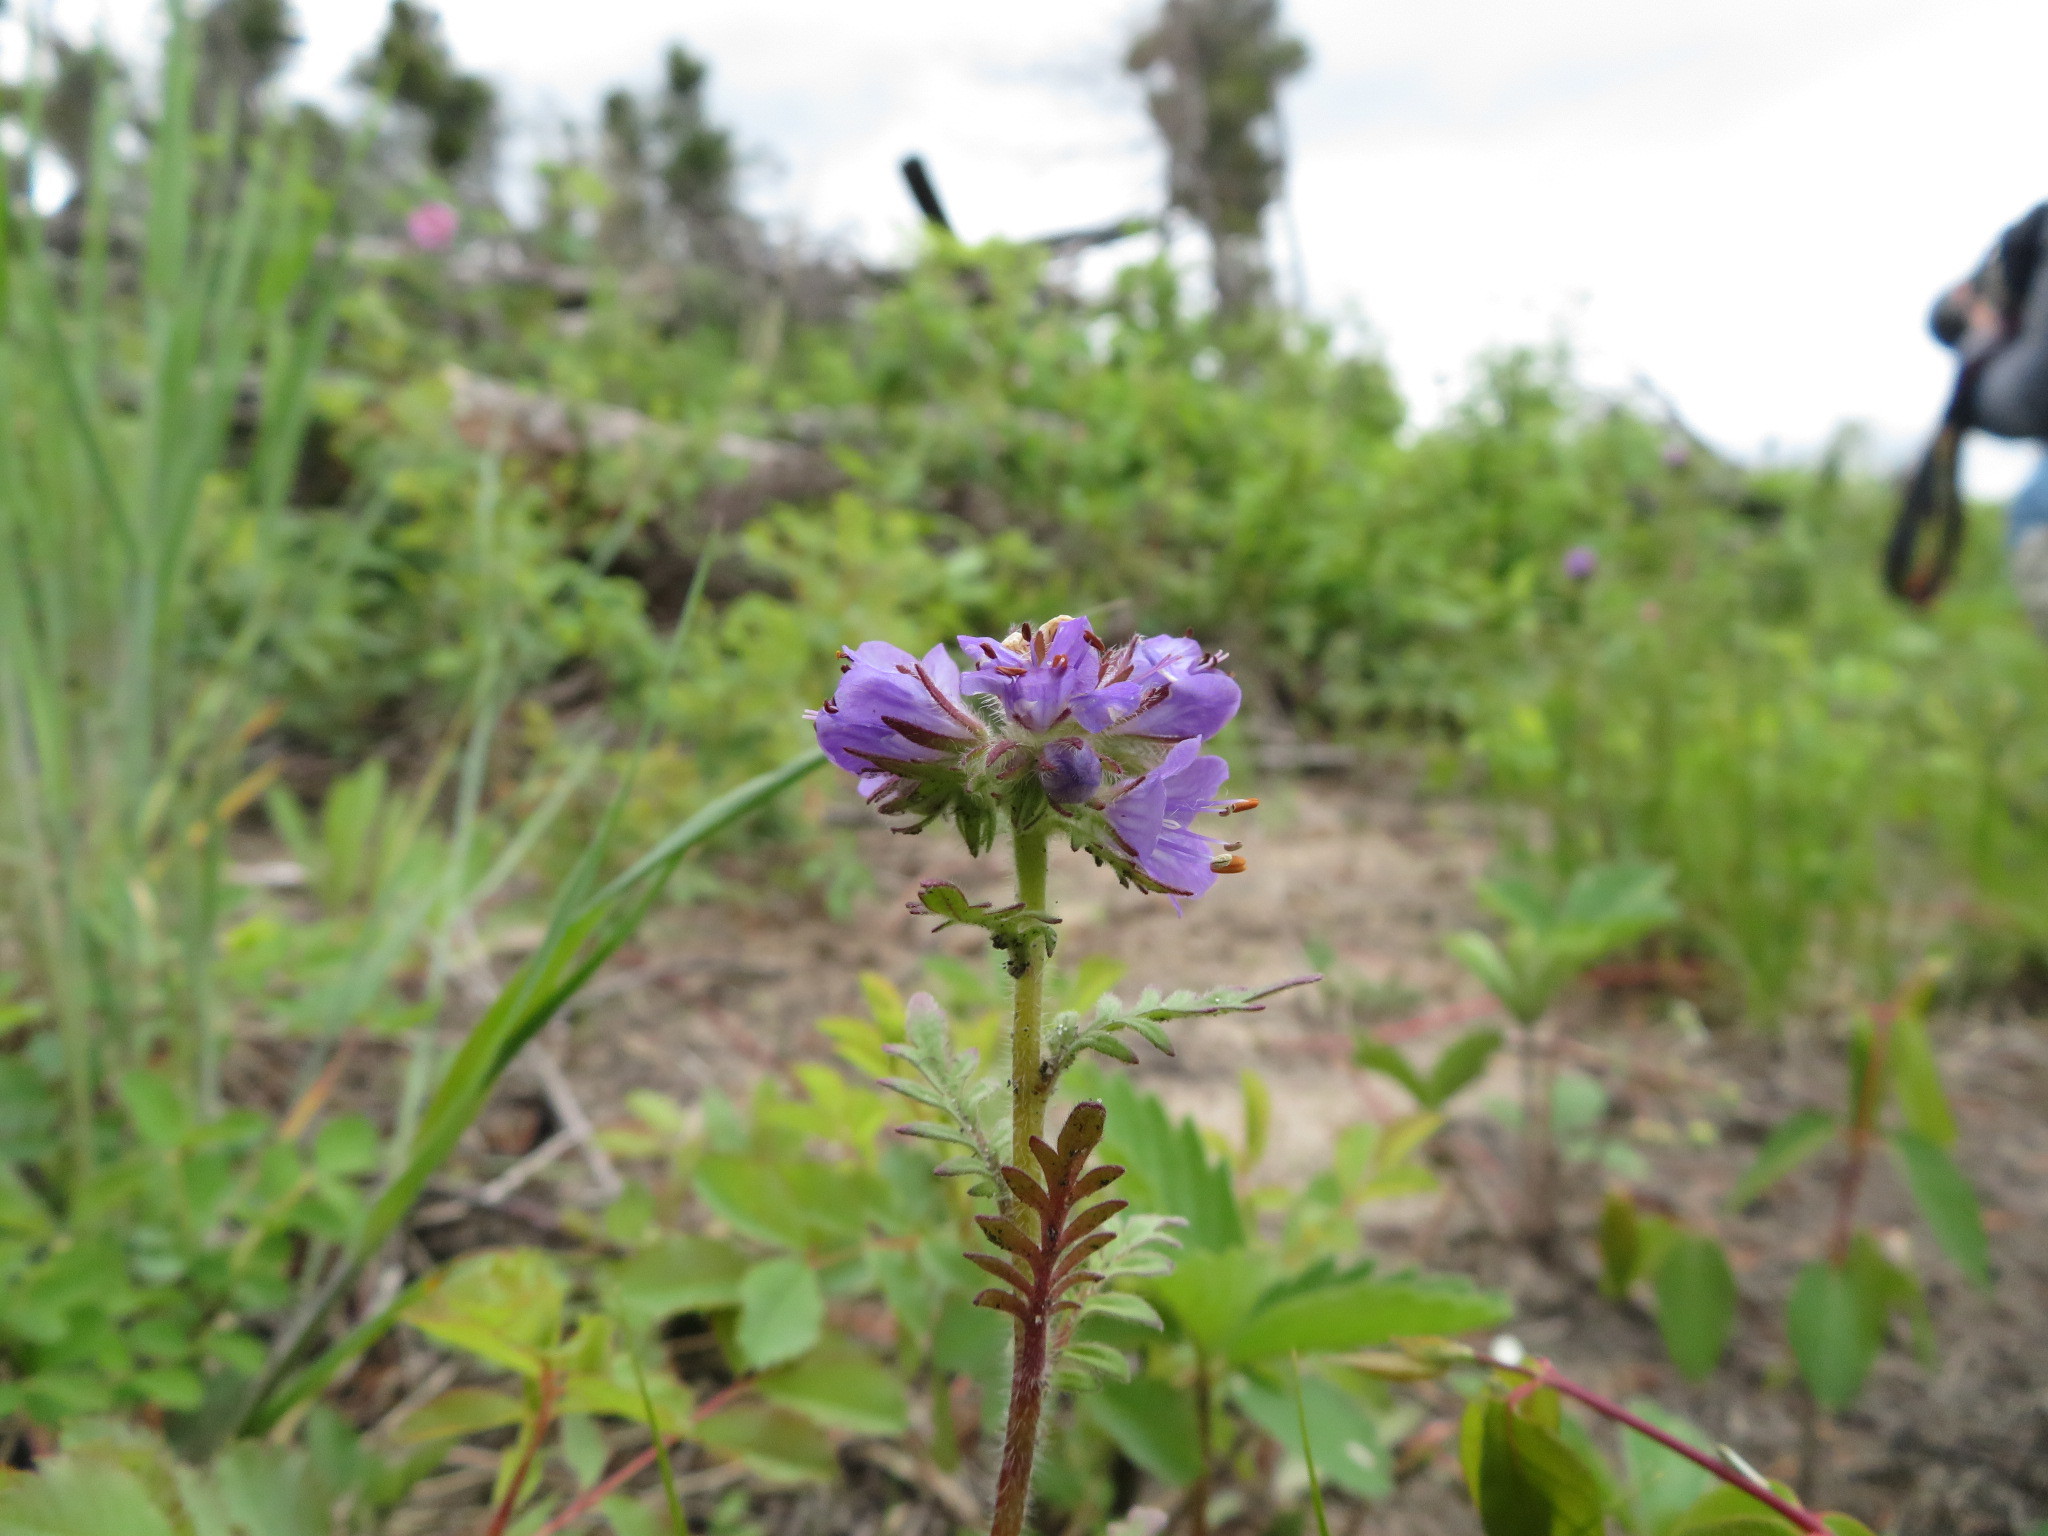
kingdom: Plantae
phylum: Tracheophyta
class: Magnoliopsida
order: Boraginales
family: Hydrophyllaceae
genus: Phacelia
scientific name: Phacelia franklinii
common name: Franklin's phacelia
